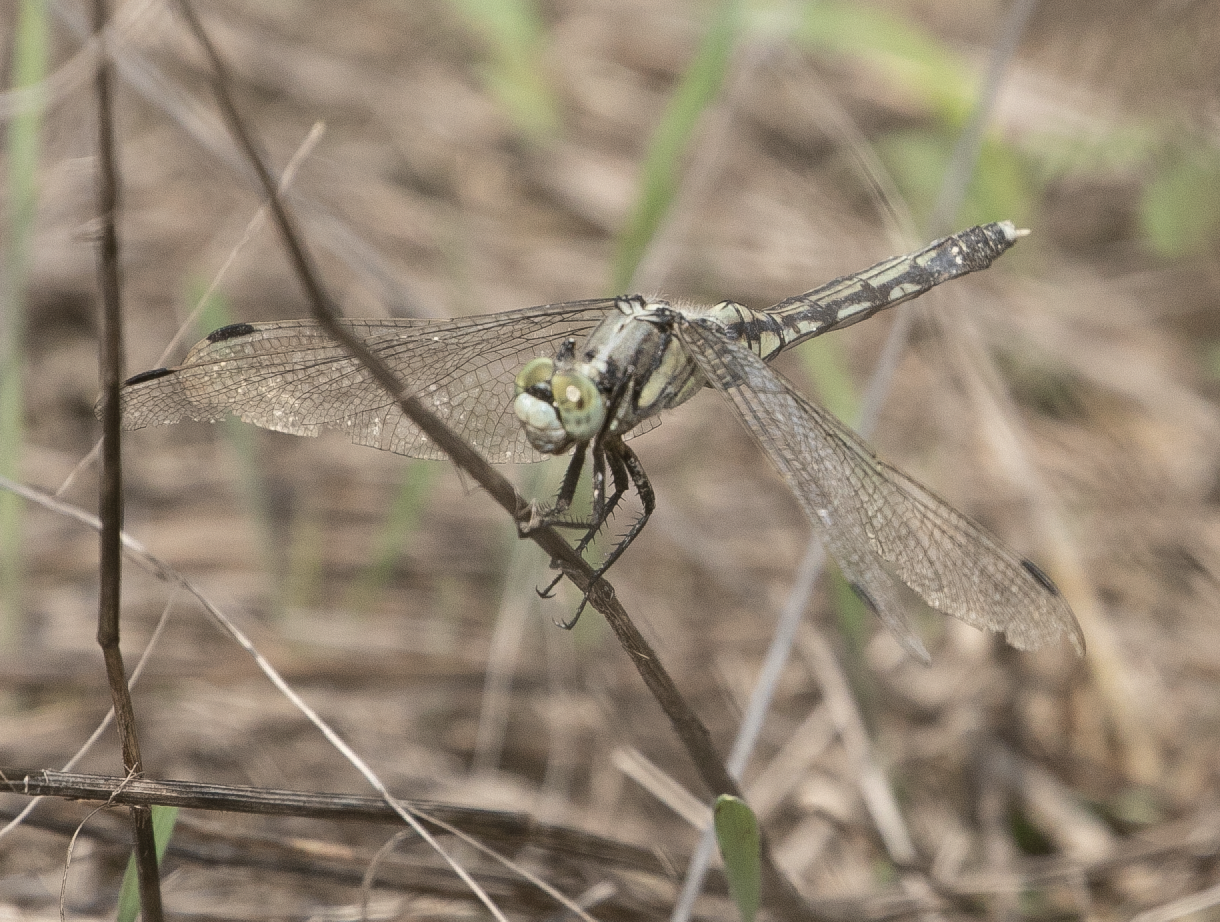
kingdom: Animalia
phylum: Arthropoda
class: Insecta
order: Odonata
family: Libellulidae
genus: Orthetrum
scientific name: Orthetrum albistylum
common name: White-tailed skimmer
